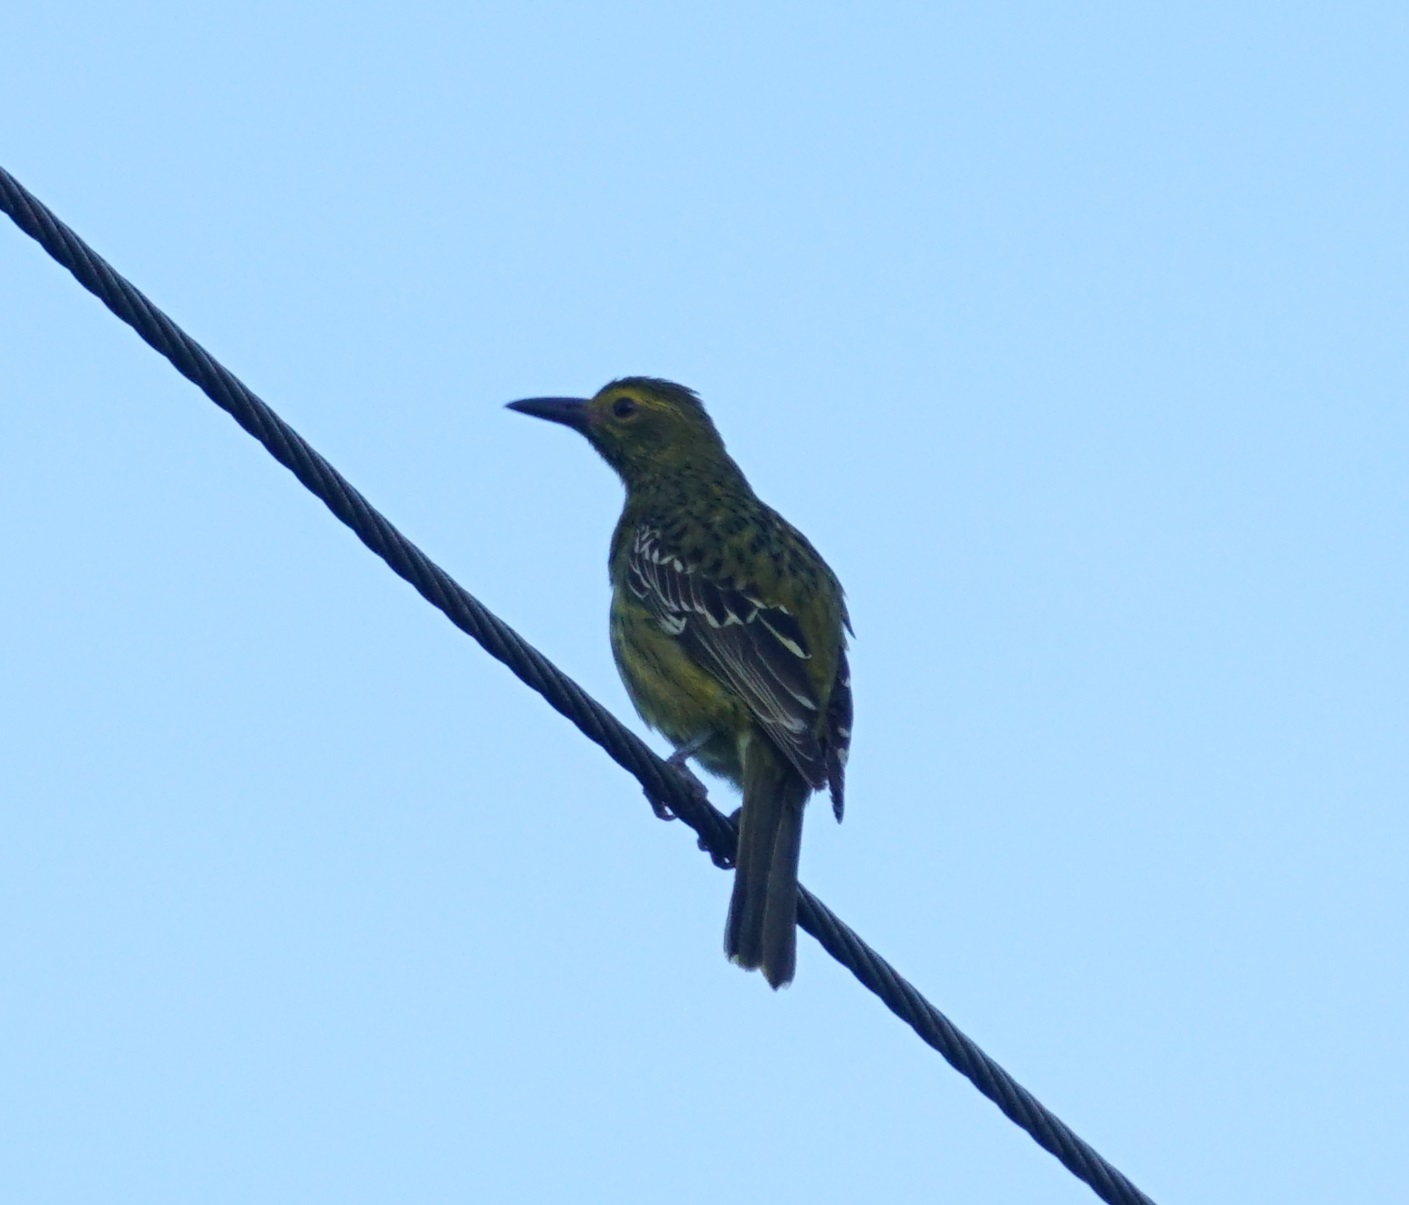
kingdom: Animalia
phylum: Chordata
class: Aves
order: Passeriformes
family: Oriolidae
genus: Oriolus
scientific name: Oriolus flavocinctus
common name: Green oriole
